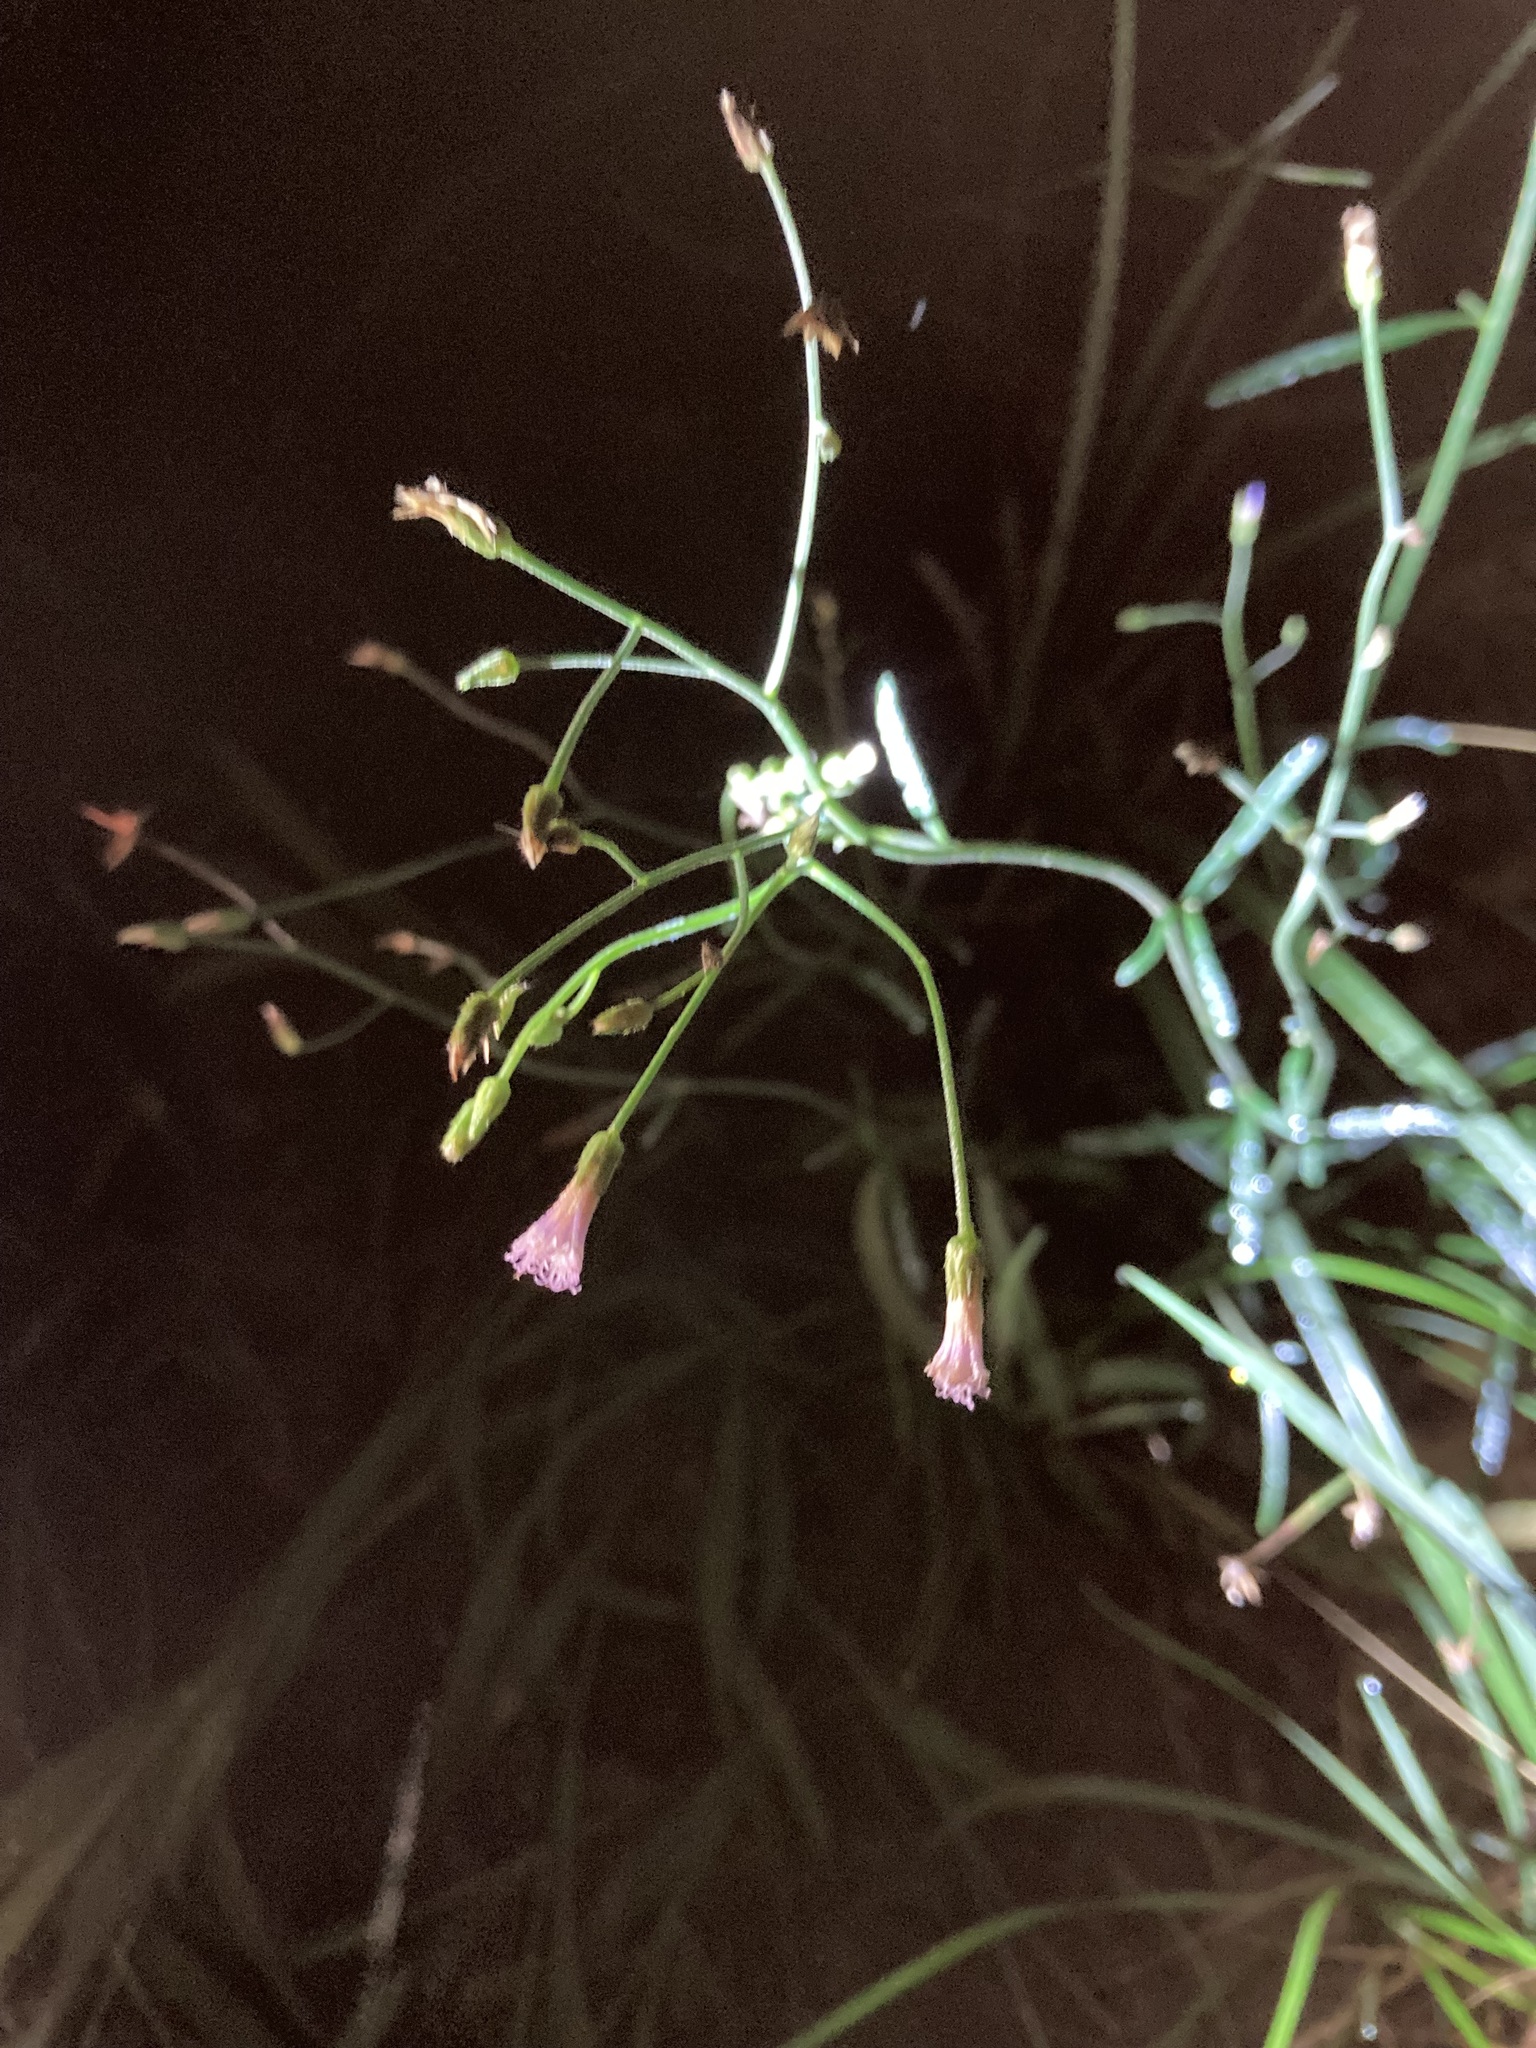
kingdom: Plantae
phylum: Tracheophyta
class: Magnoliopsida
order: Asterales
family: Asteraceae
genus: Cyanthillium
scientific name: Cyanthillium cinereum
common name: Little ironweed
